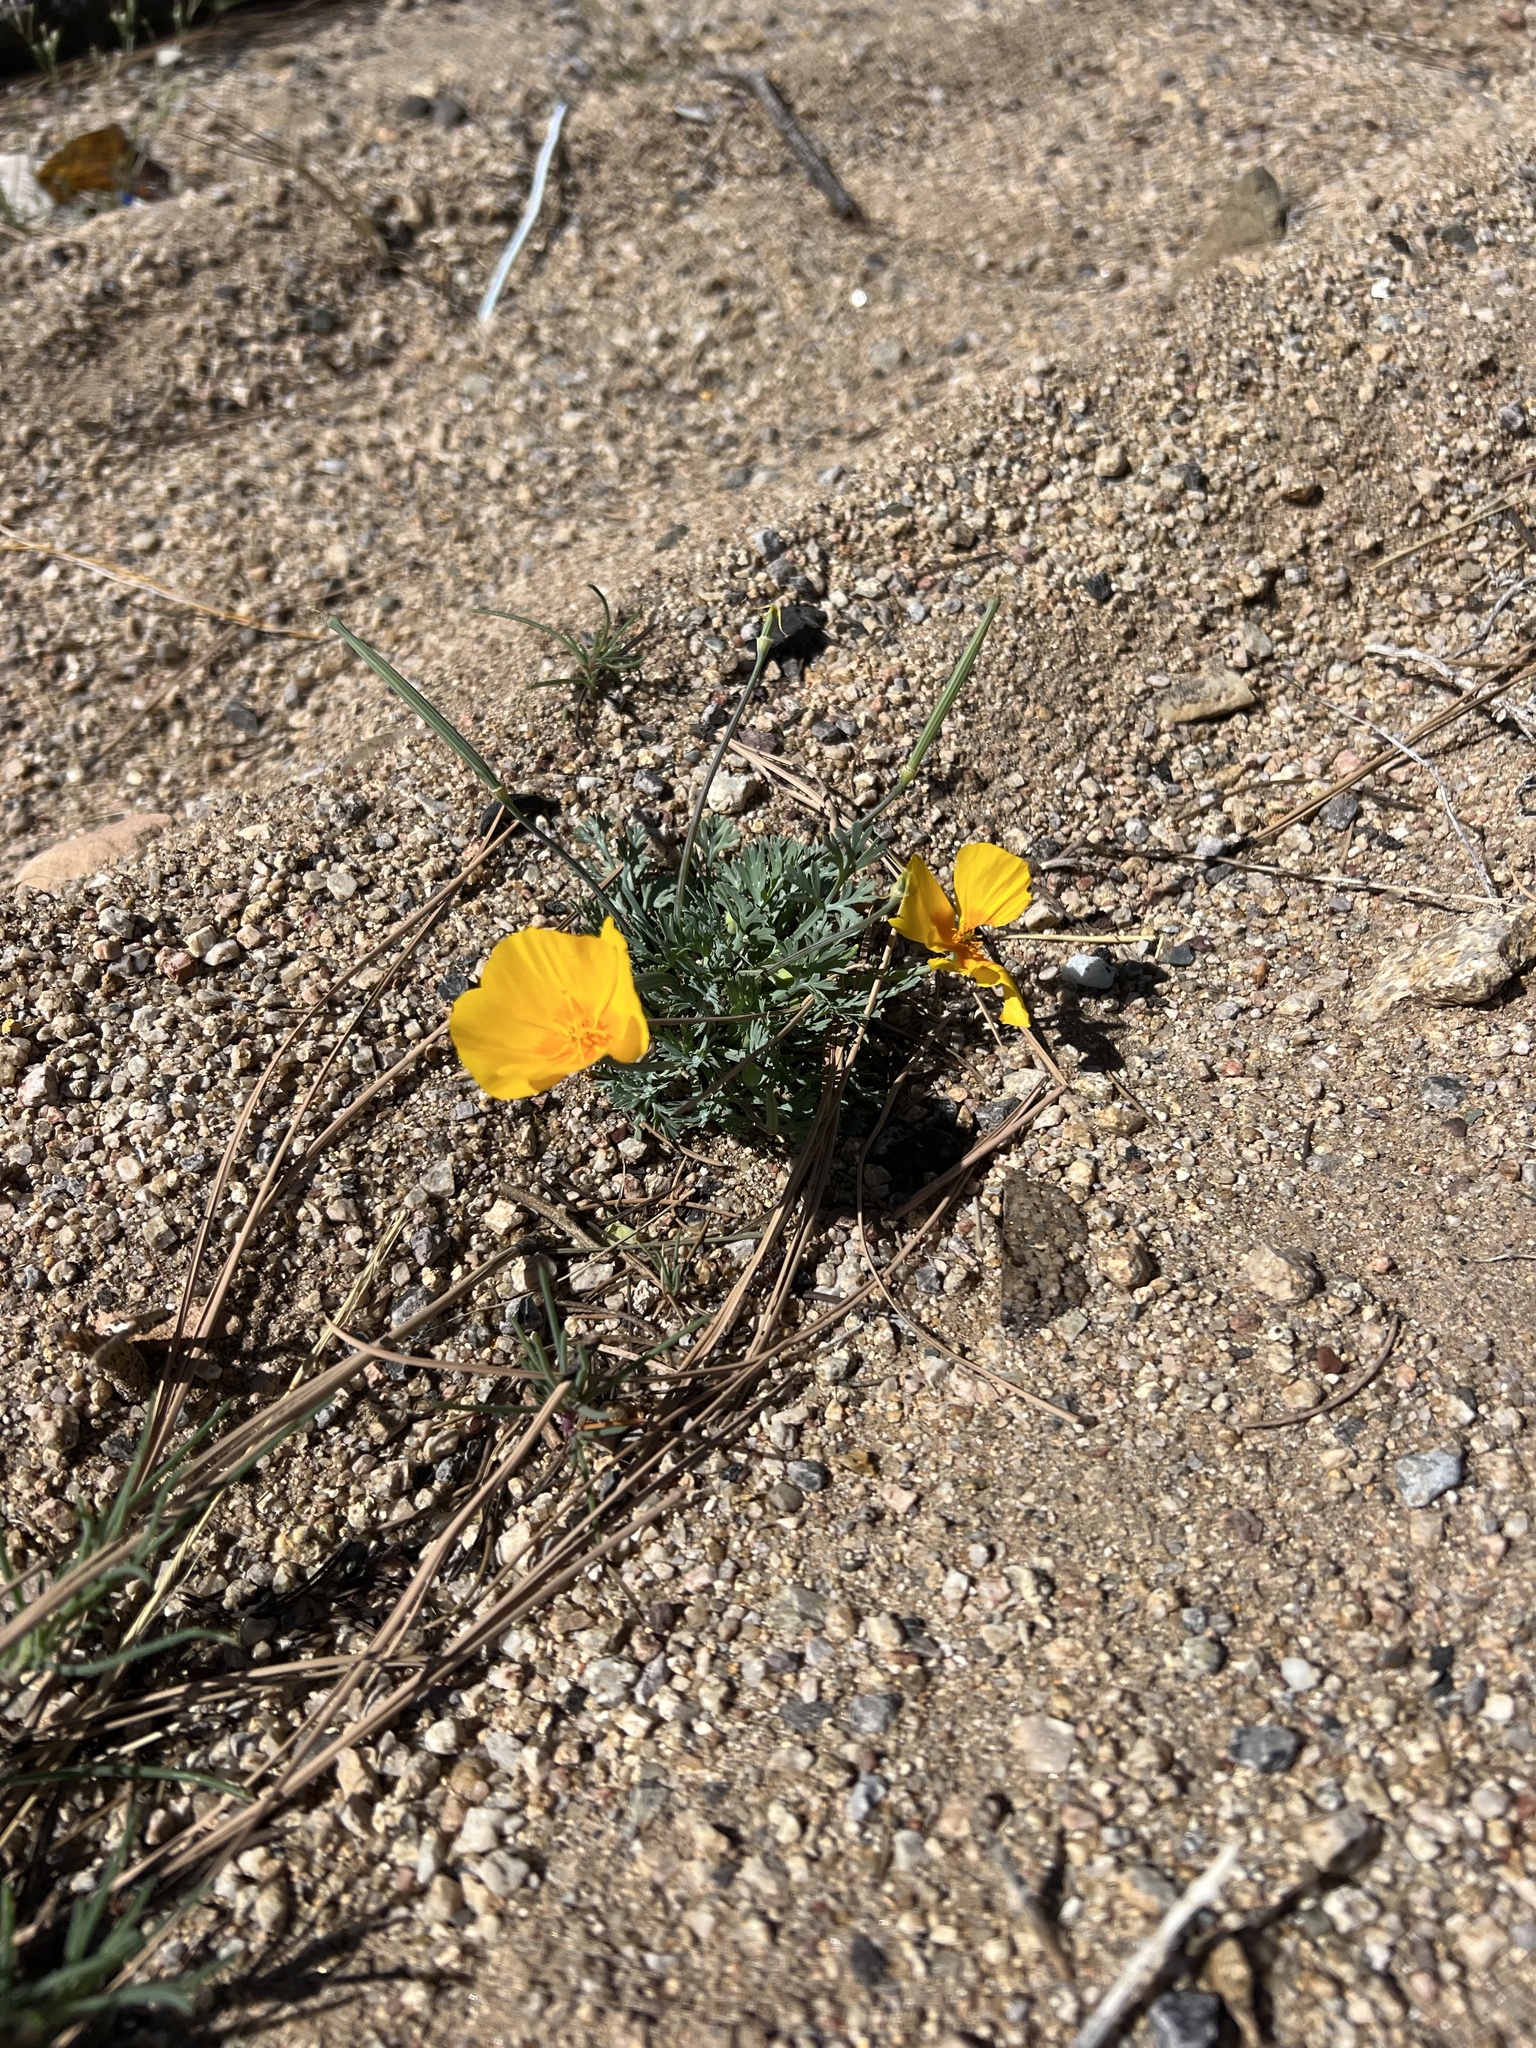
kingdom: Plantae
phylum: Tracheophyta
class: Magnoliopsida
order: Ranunculales
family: Papaveraceae
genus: Eschscholzia
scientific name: Eschscholzia californica
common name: California poppy
